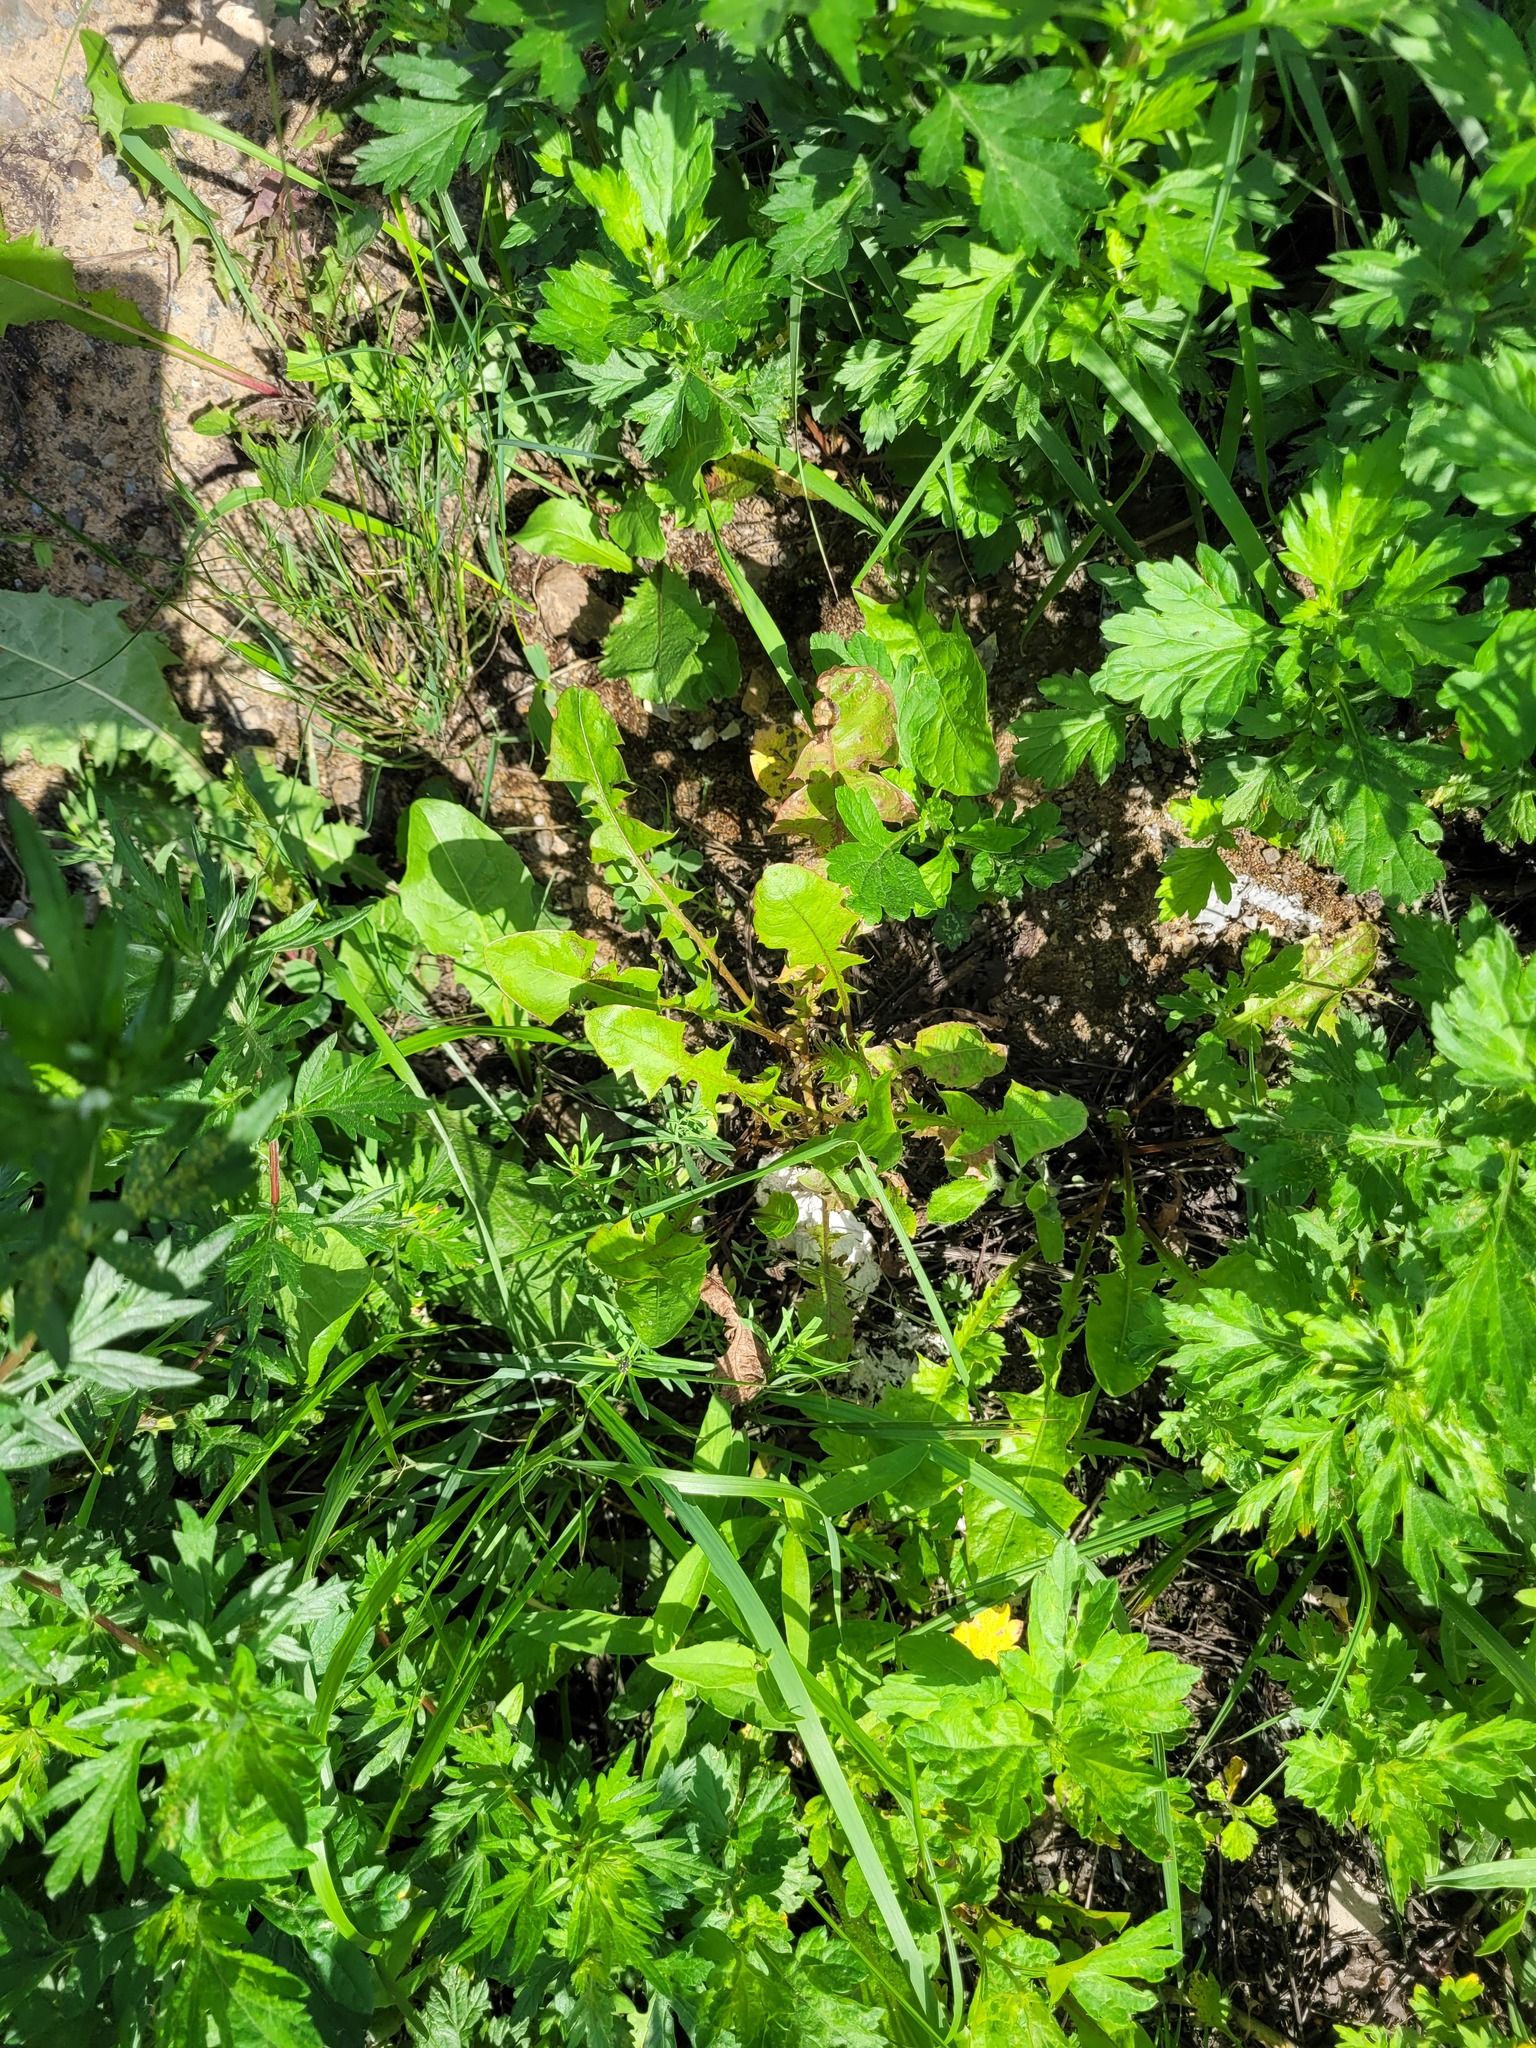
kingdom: Plantae
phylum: Tracheophyta
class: Magnoliopsida
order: Asterales
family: Asteraceae
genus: Taraxacum
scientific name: Taraxacum officinale
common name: Common dandelion
